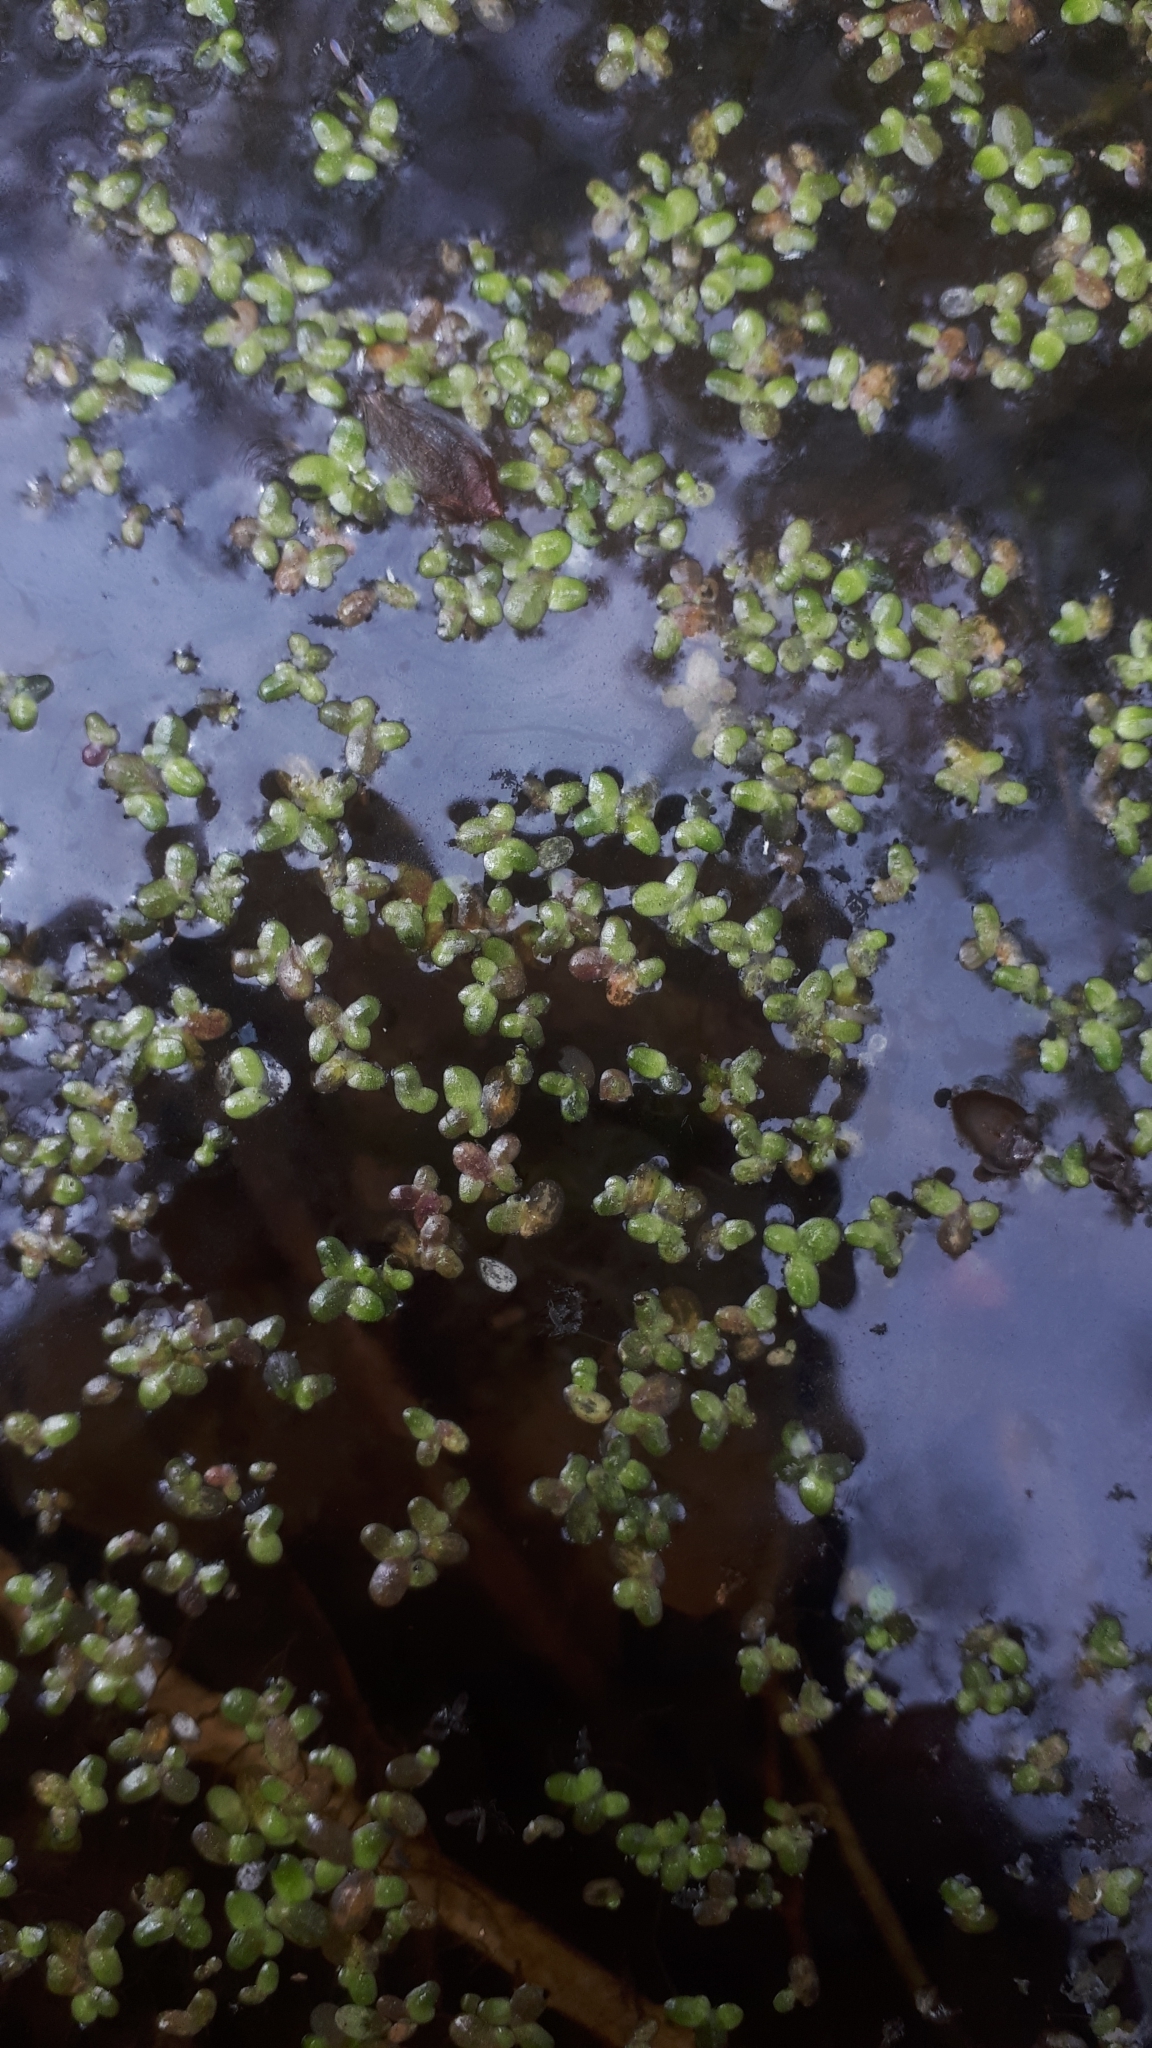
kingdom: Plantae
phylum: Tracheophyta
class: Liliopsida
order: Alismatales
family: Araceae
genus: Lemna
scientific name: Lemna minor
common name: Common duckweed
